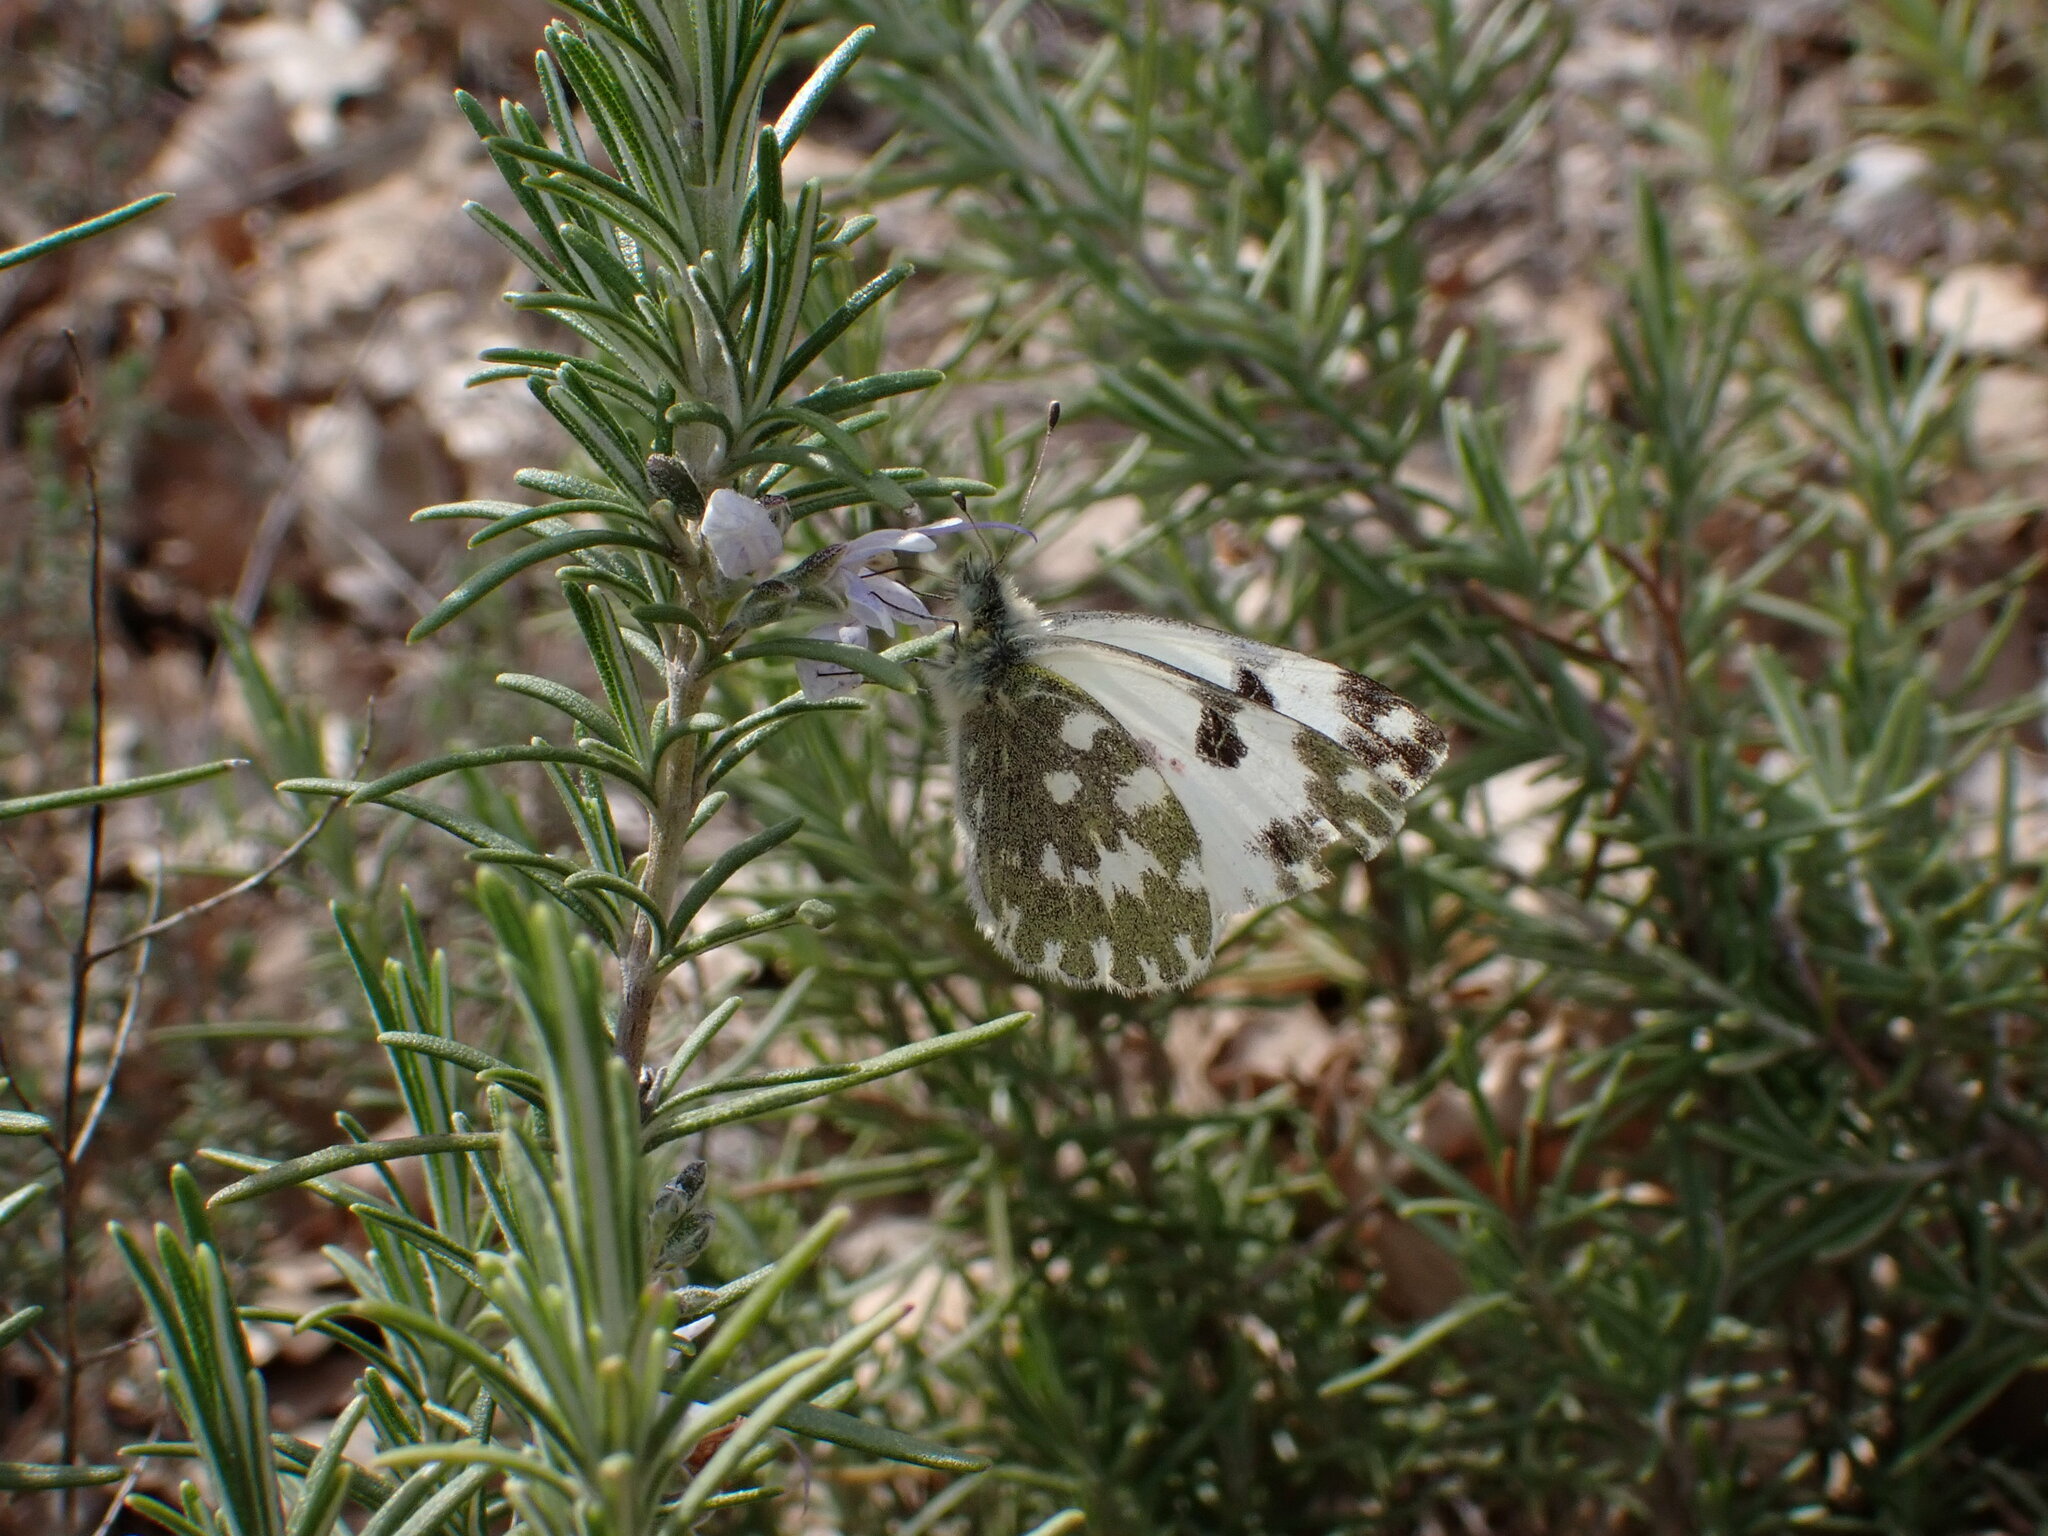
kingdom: Animalia
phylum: Arthropoda
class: Insecta
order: Lepidoptera
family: Pieridae
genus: Pontia
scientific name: Pontia daplidice
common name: Bath white
